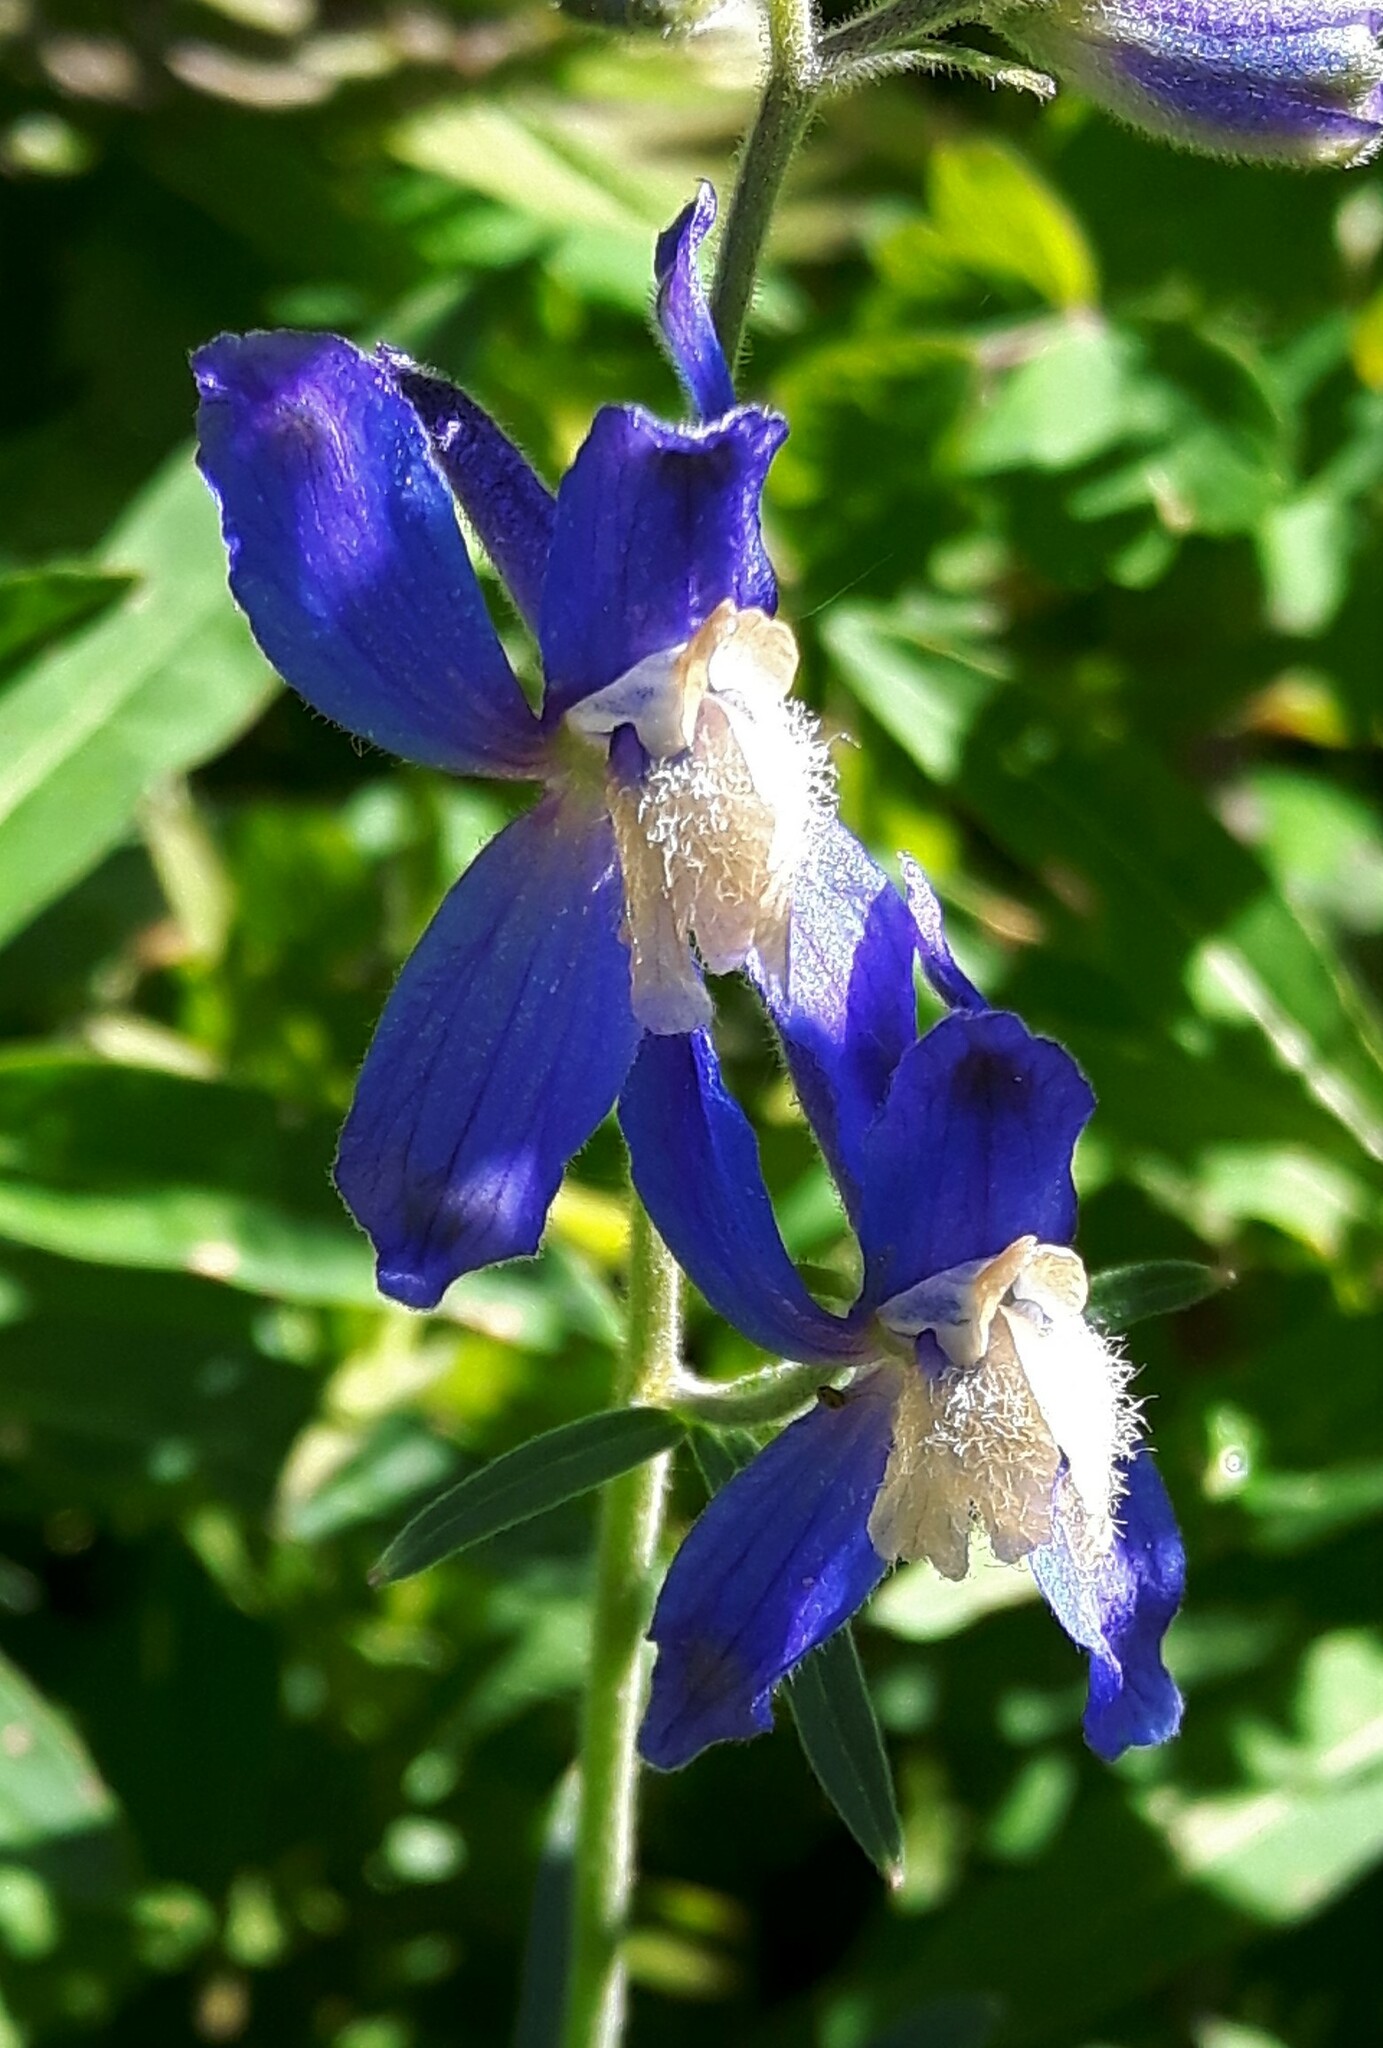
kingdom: Plantae
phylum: Tracheophyta
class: Magnoliopsida
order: Ranunculales
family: Ranunculaceae
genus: Delphinium
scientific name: Delphinium sutherlandii
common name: Sutherland's larkspur
